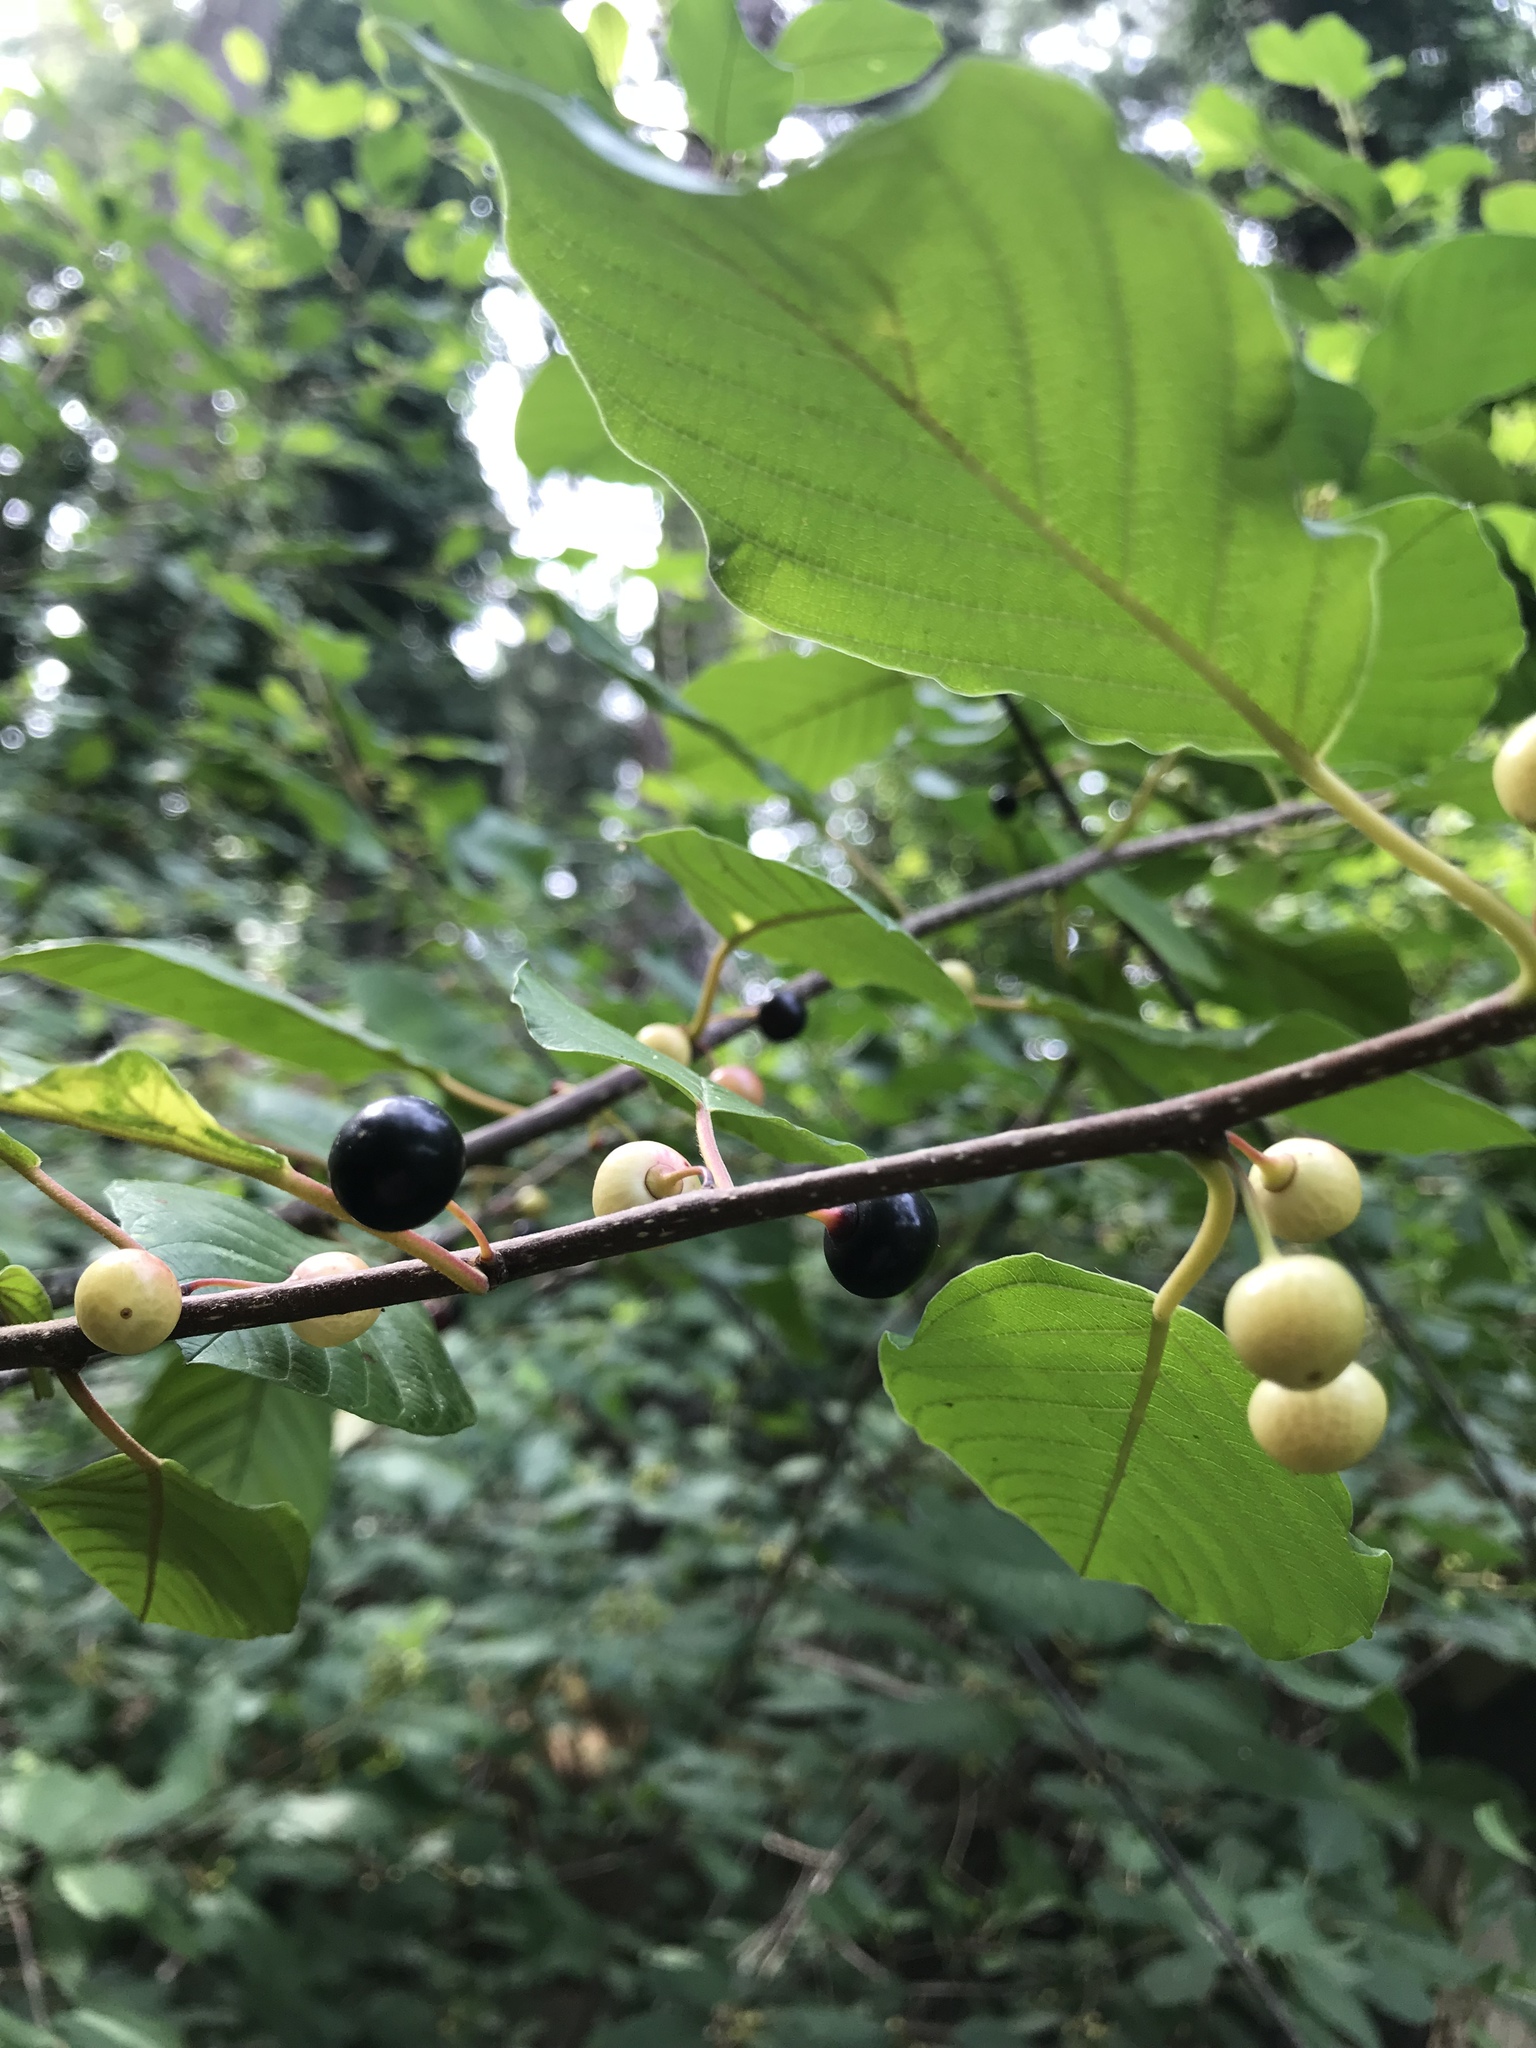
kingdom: Plantae
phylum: Tracheophyta
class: Magnoliopsida
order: Rosales
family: Rhamnaceae
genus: Frangula
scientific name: Frangula alnus
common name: Alder buckthorn
